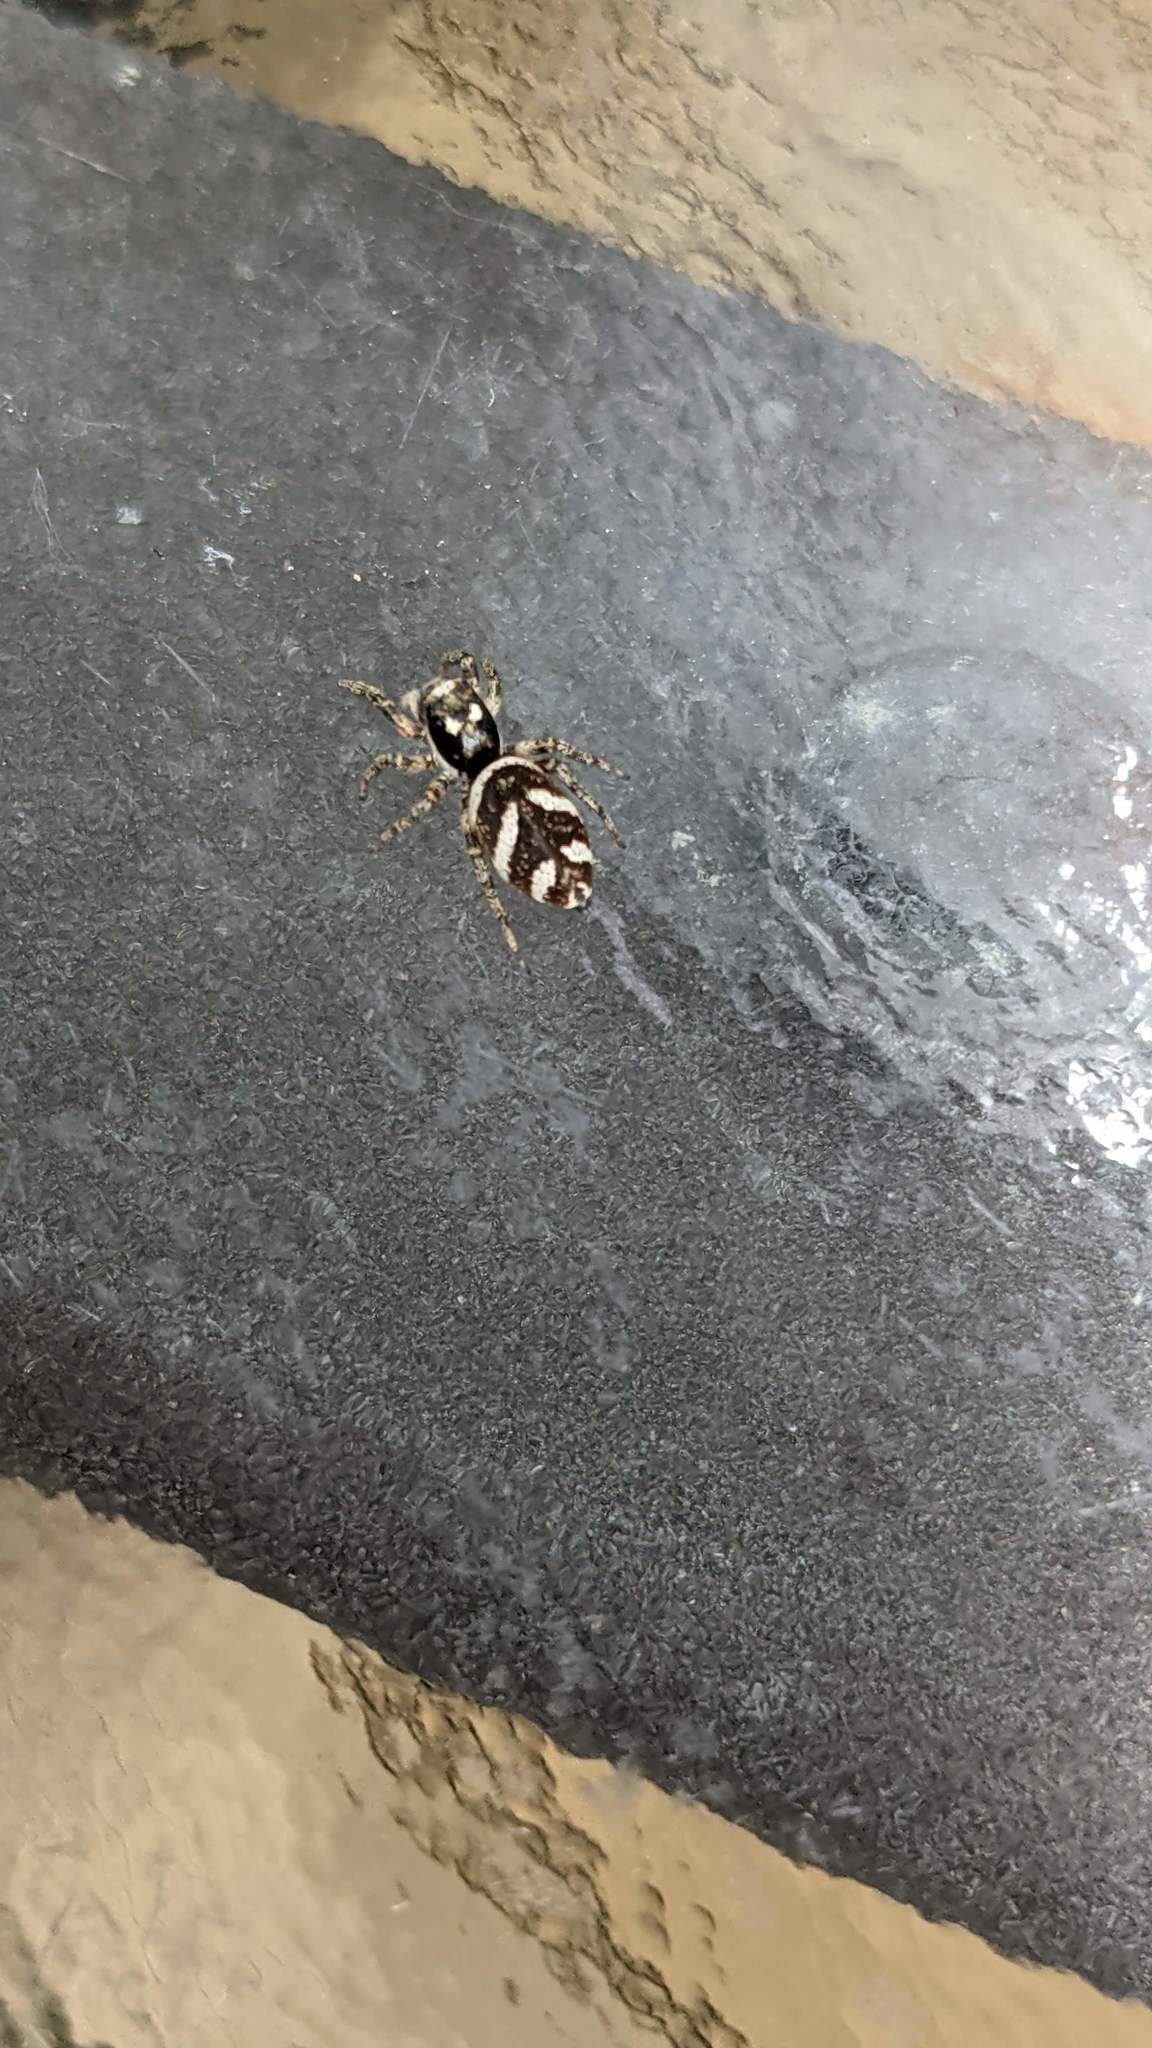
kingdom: Animalia
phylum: Arthropoda
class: Arachnida
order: Araneae
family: Salticidae
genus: Salticus
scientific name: Salticus scenicus
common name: Zebra jumper
